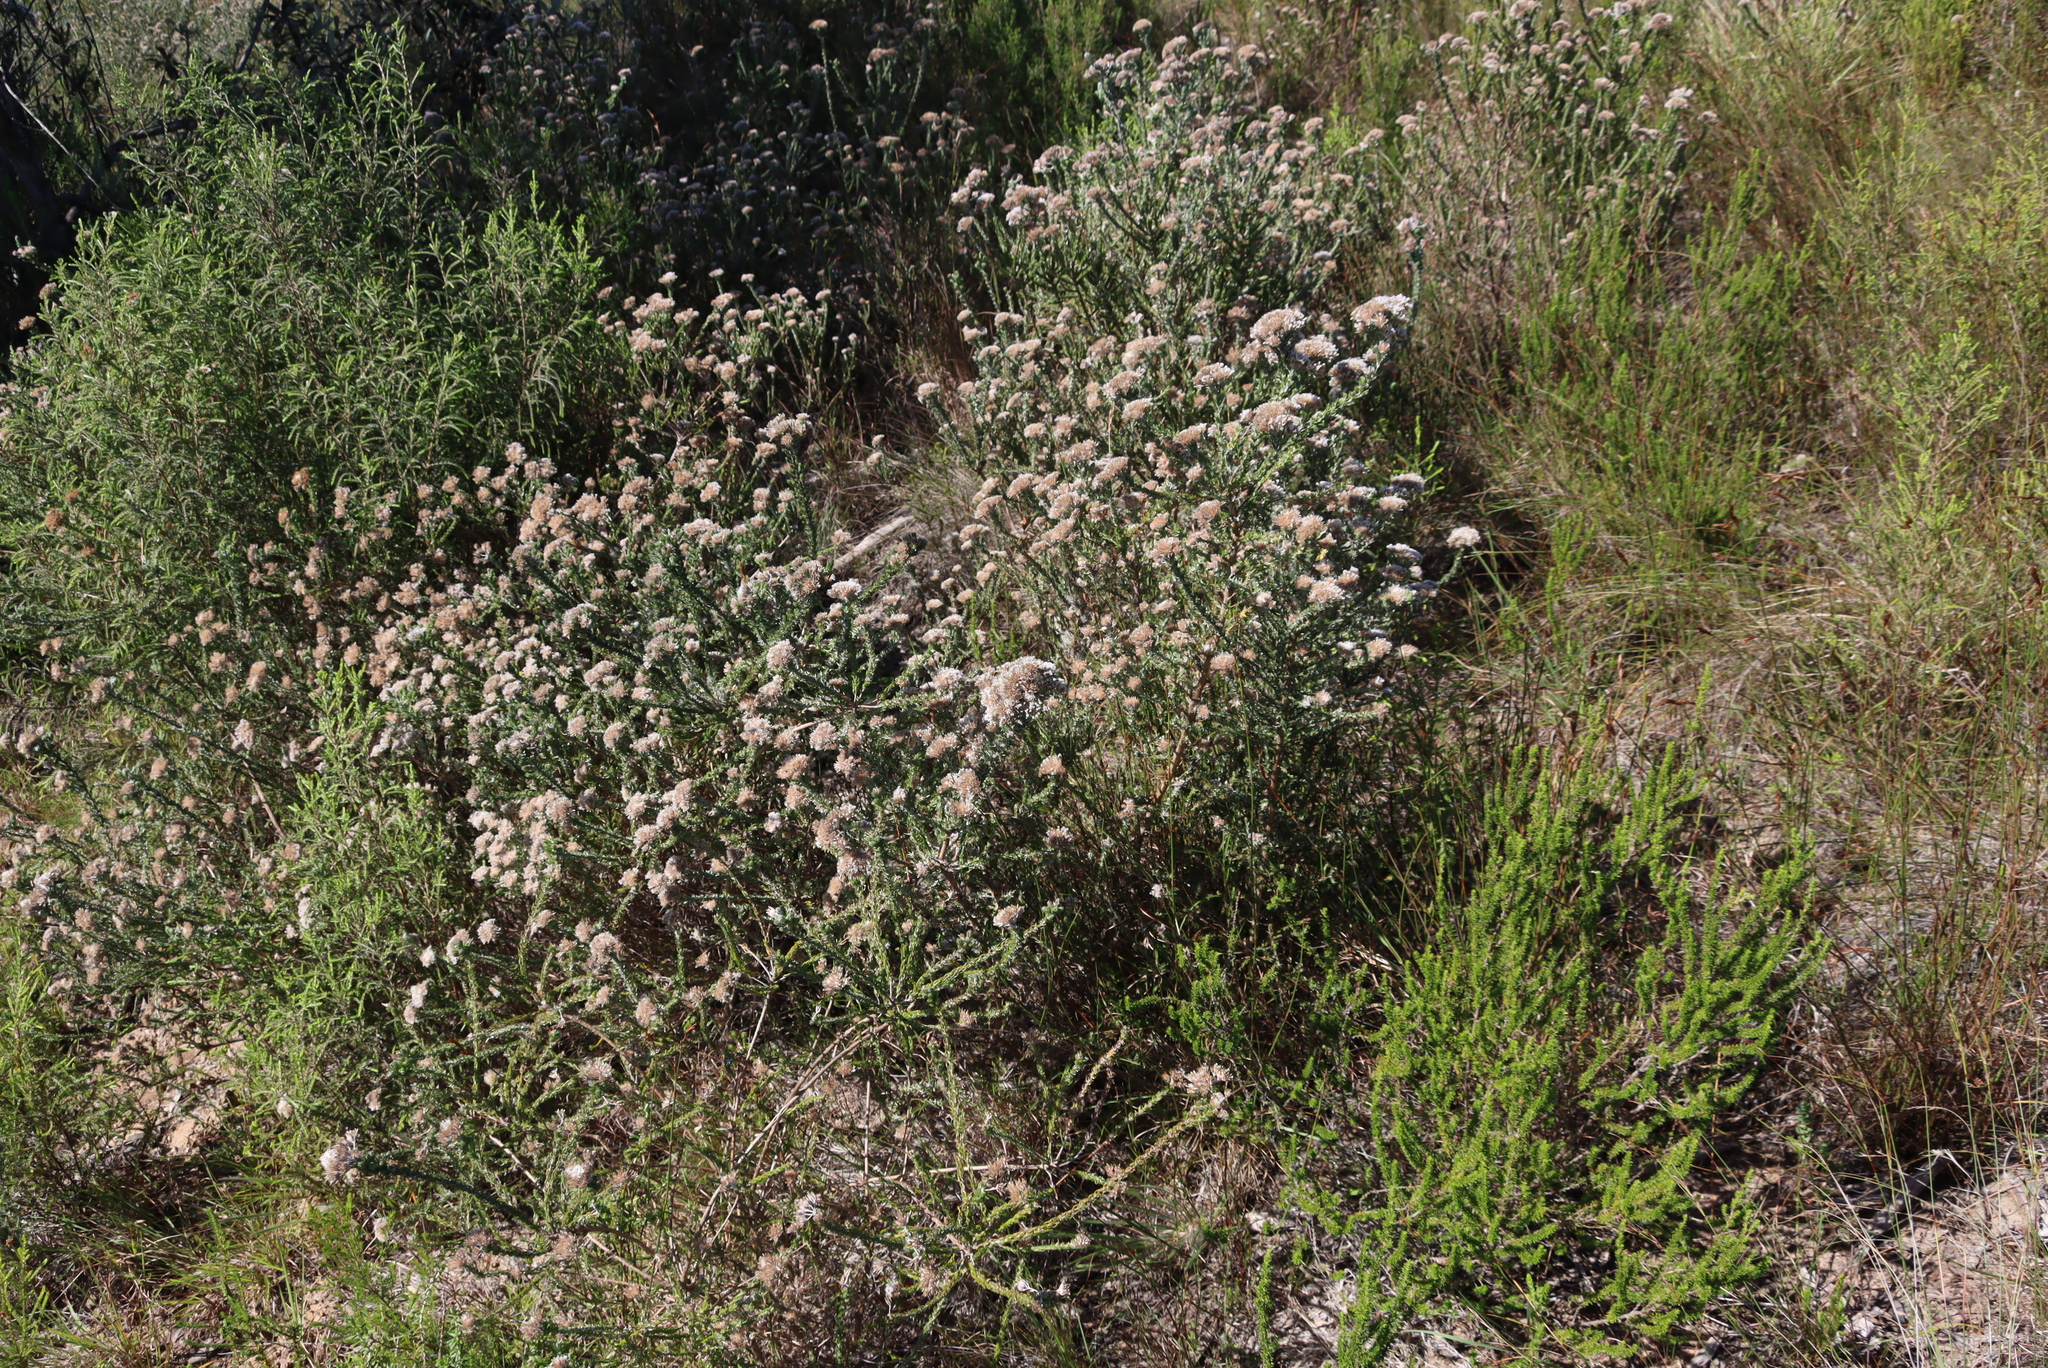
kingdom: Plantae
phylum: Tracheophyta
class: Magnoliopsida
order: Asterales
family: Asteraceae
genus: Metalasia
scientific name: Metalasia pungens
